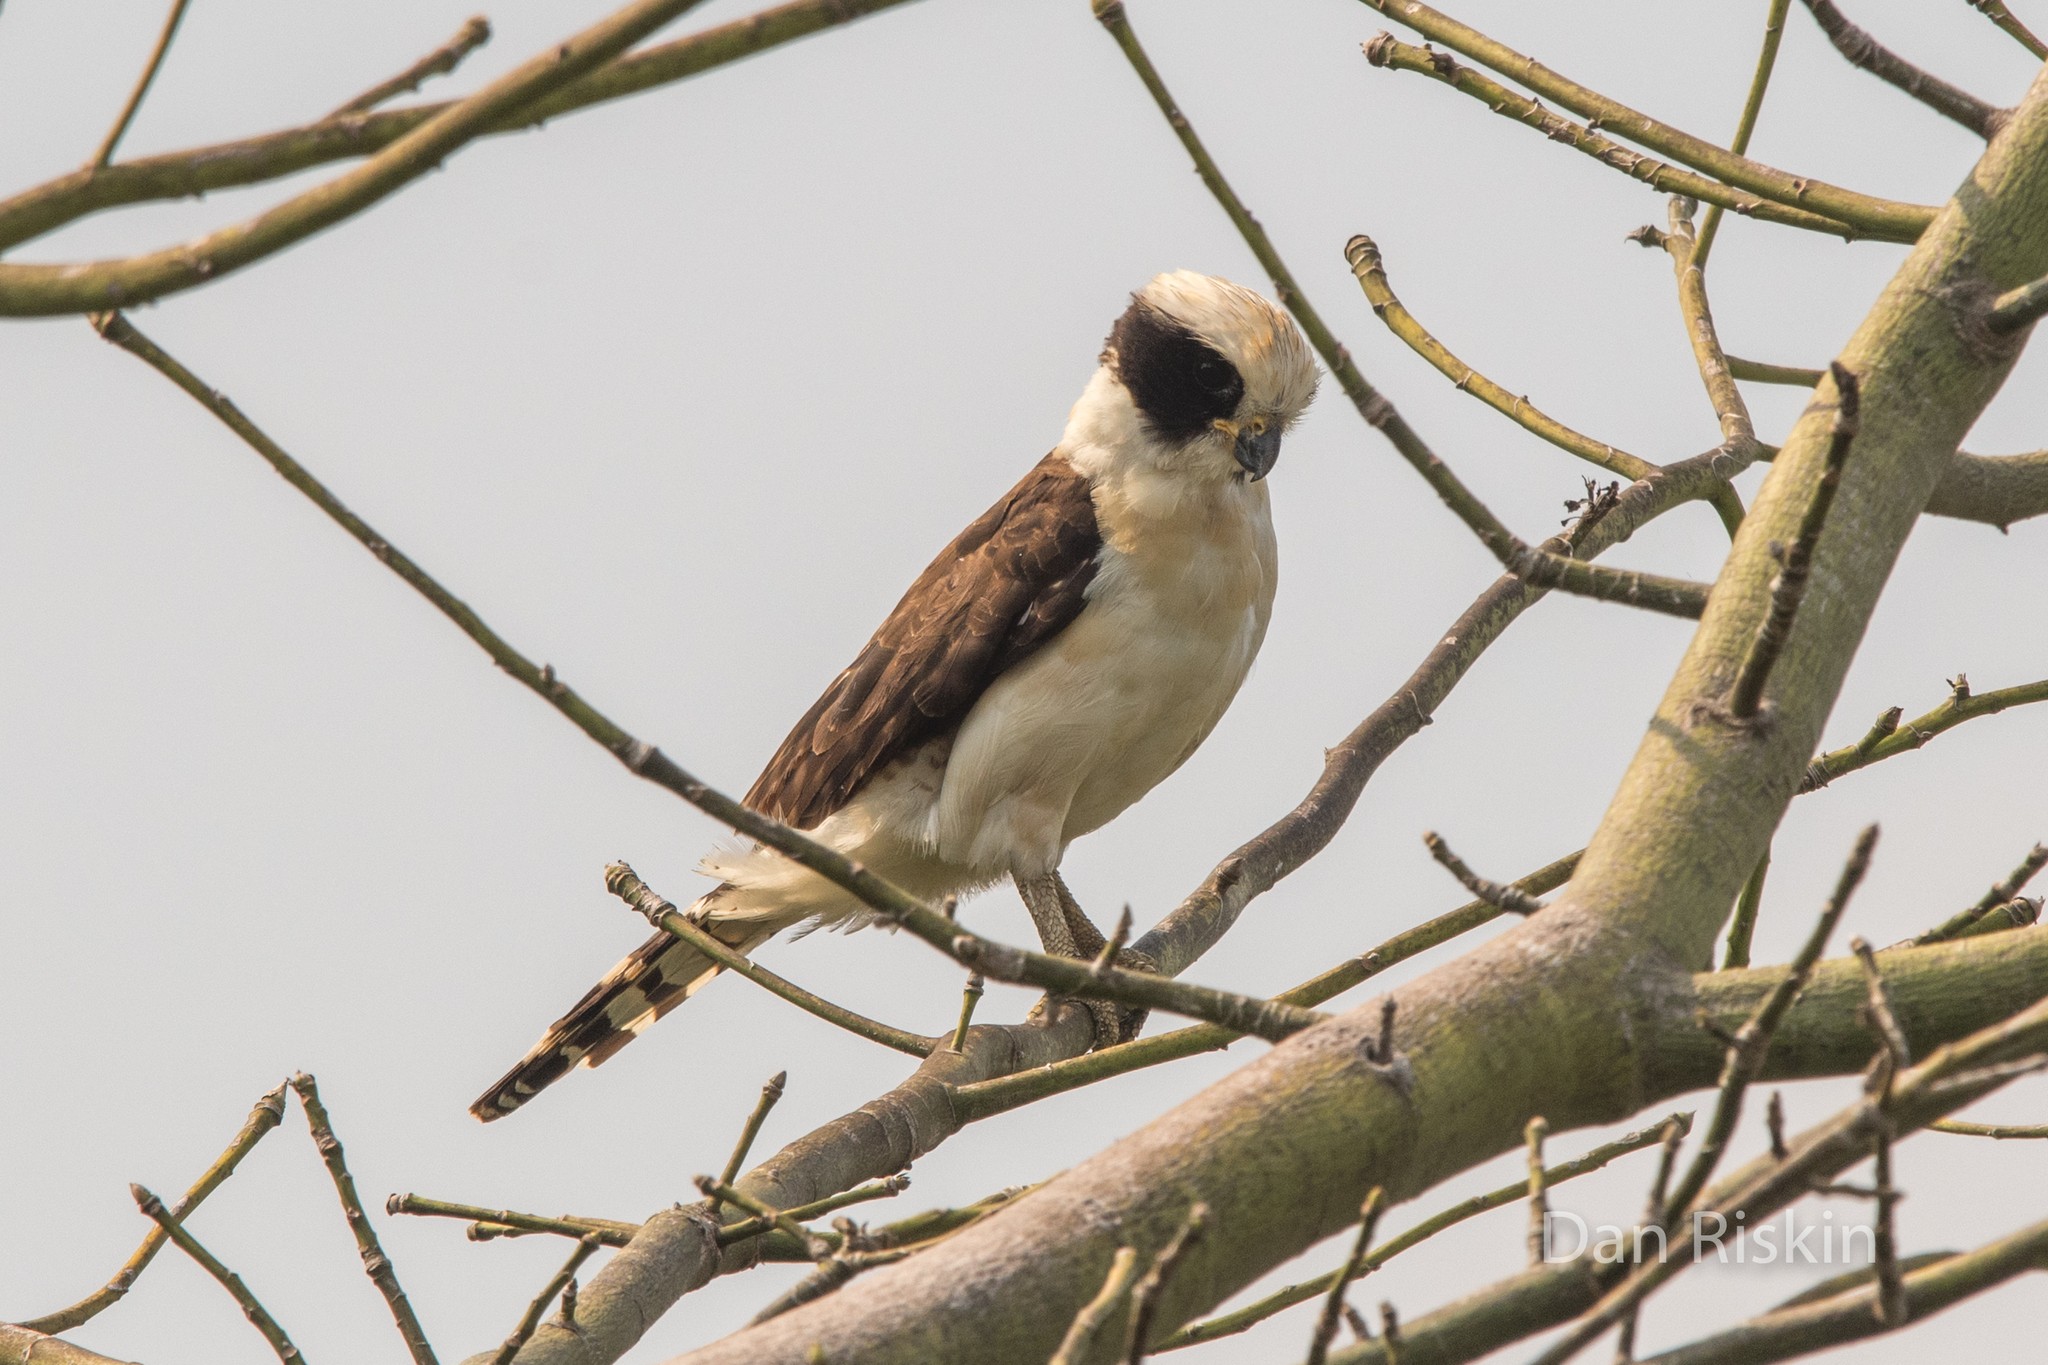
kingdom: Animalia
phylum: Chordata
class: Aves
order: Falconiformes
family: Falconidae
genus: Herpetotheres
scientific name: Herpetotheres cachinnans
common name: Laughing falcon
